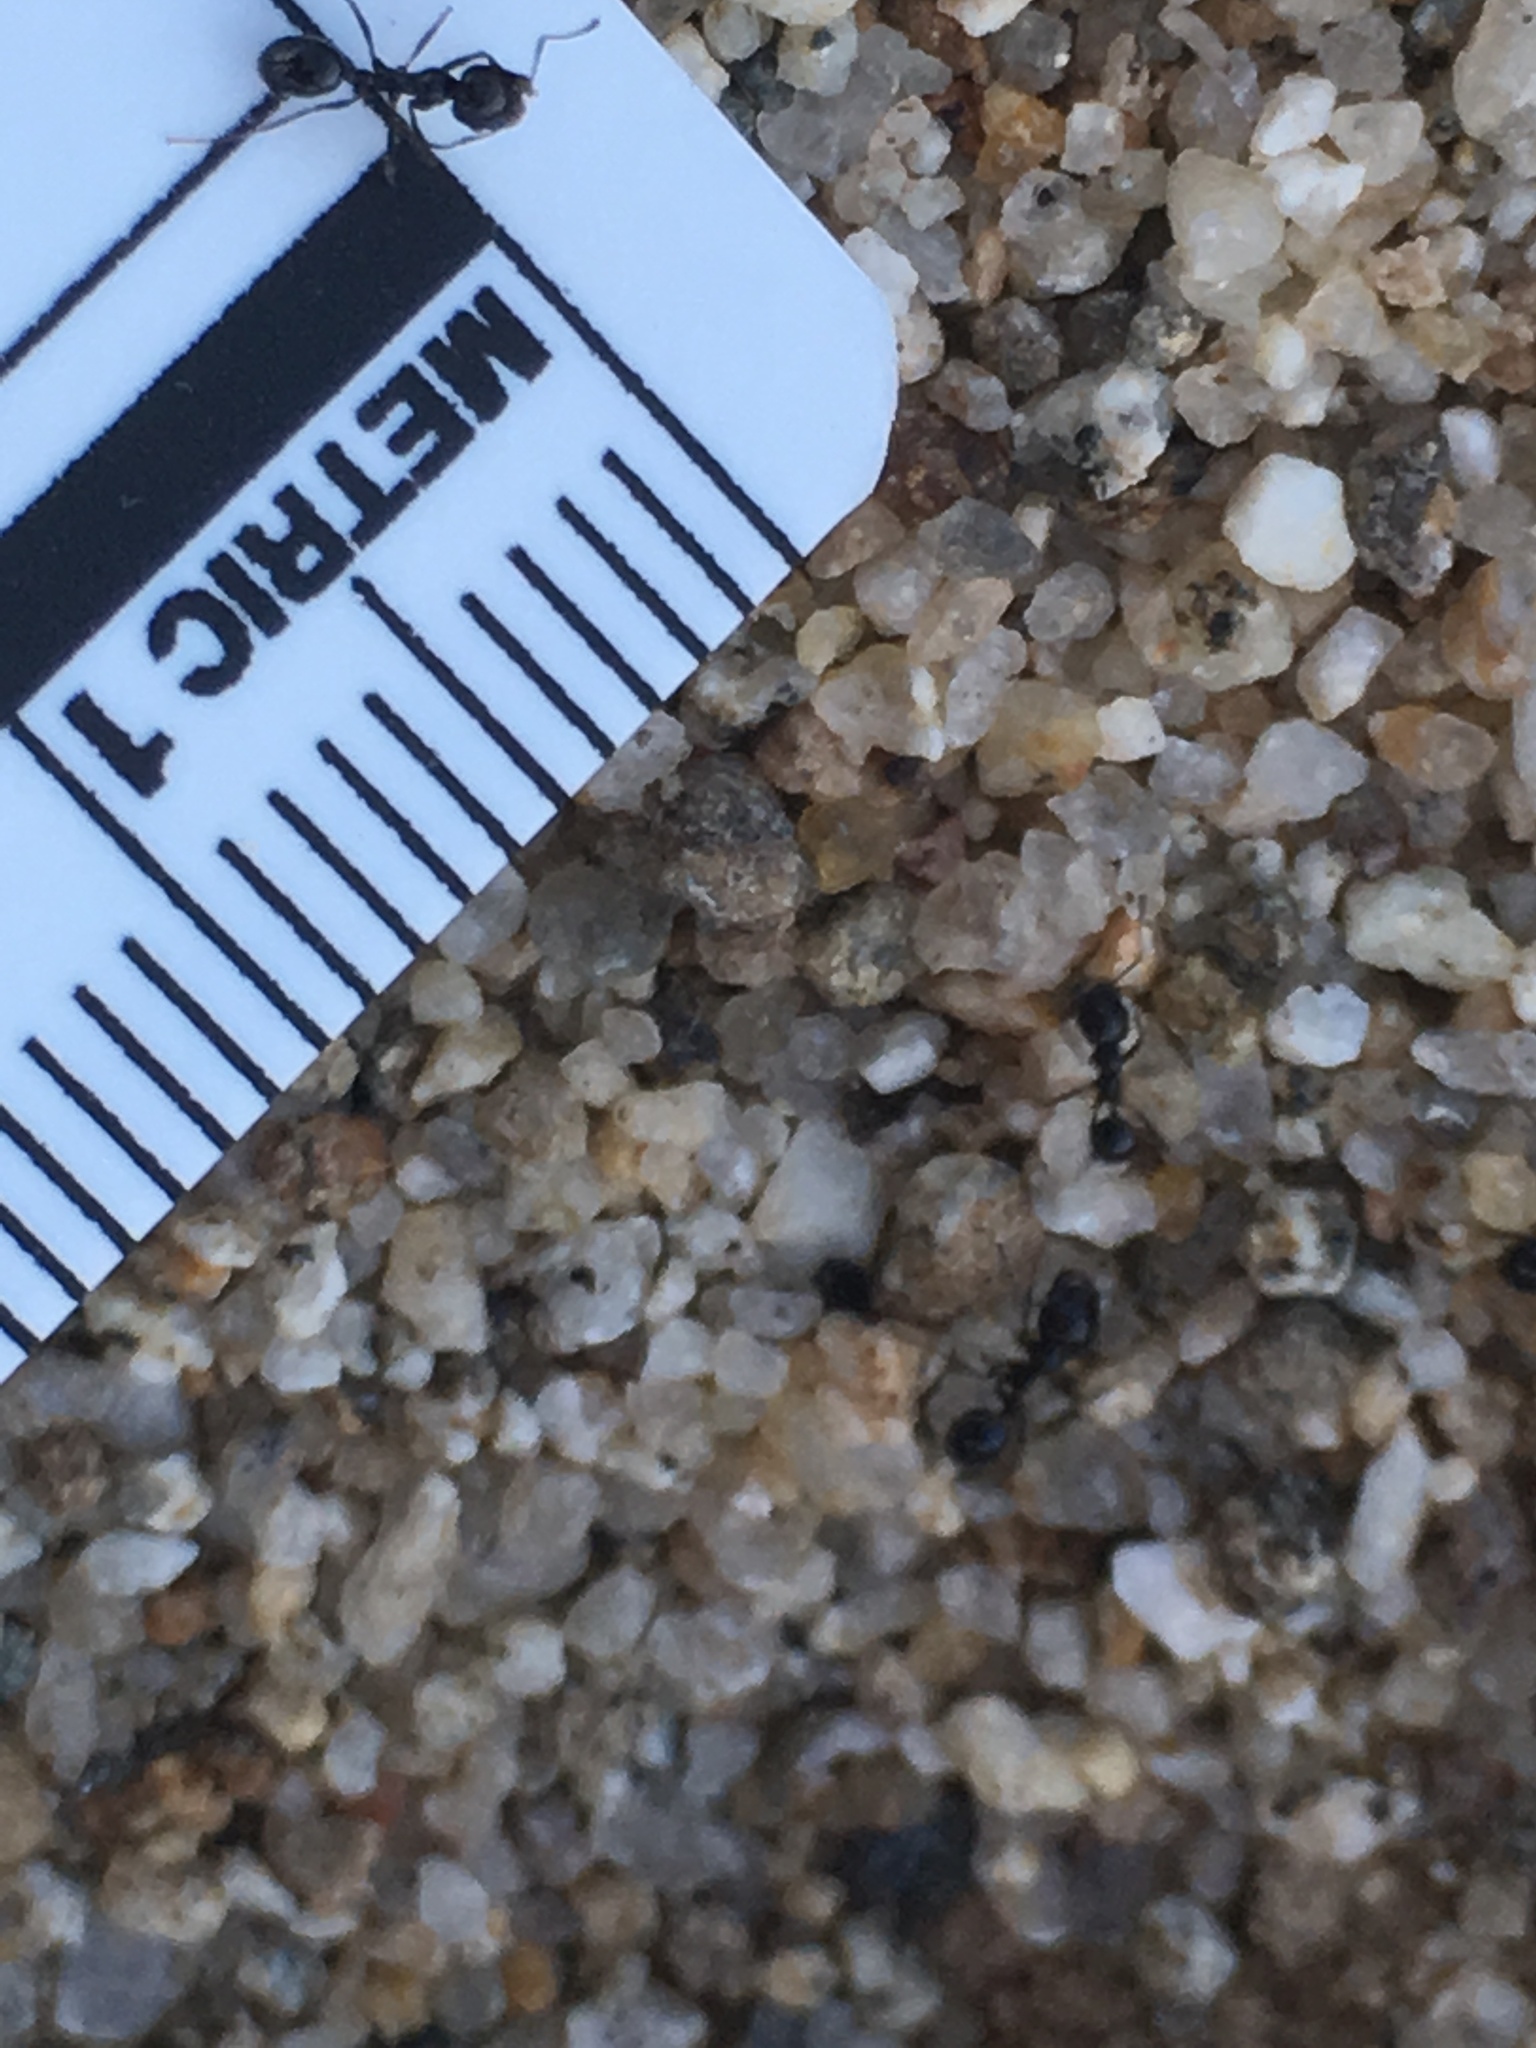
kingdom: Animalia
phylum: Arthropoda
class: Insecta
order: Hymenoptera
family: Formicidae
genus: Messor
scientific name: Messor pergandei
